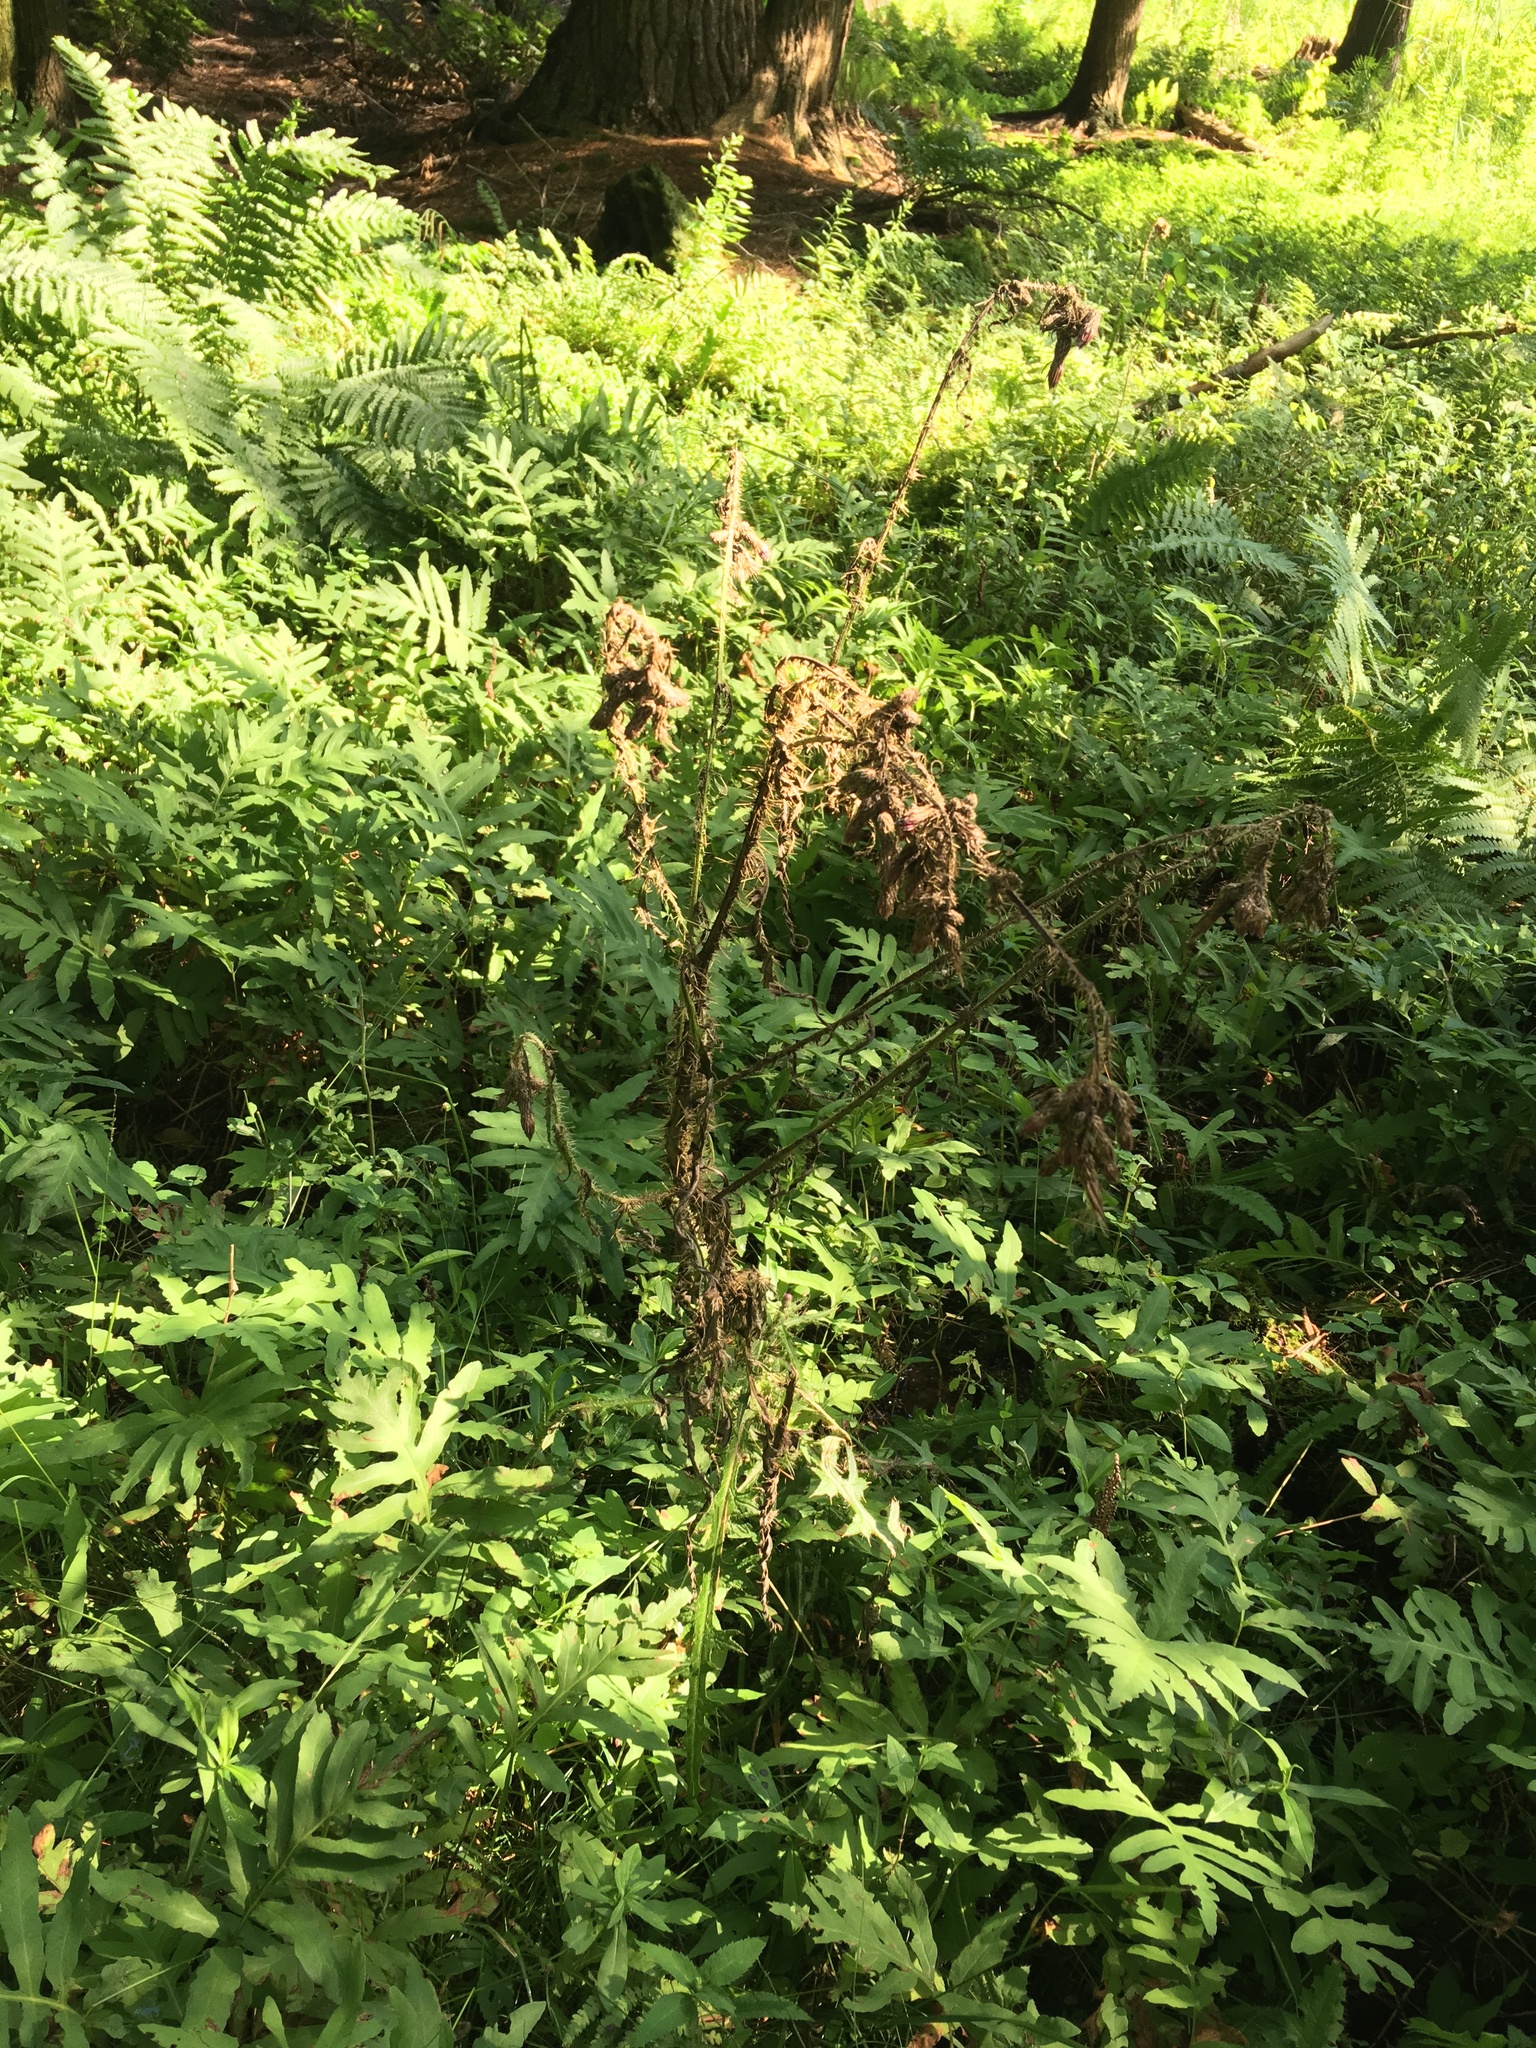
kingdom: Plantae
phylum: Tracheophyta
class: Magnoliopsida
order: Asterales
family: Asteraceae
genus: Cirsium
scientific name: Cirsium palustre
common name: Marsh thistle
